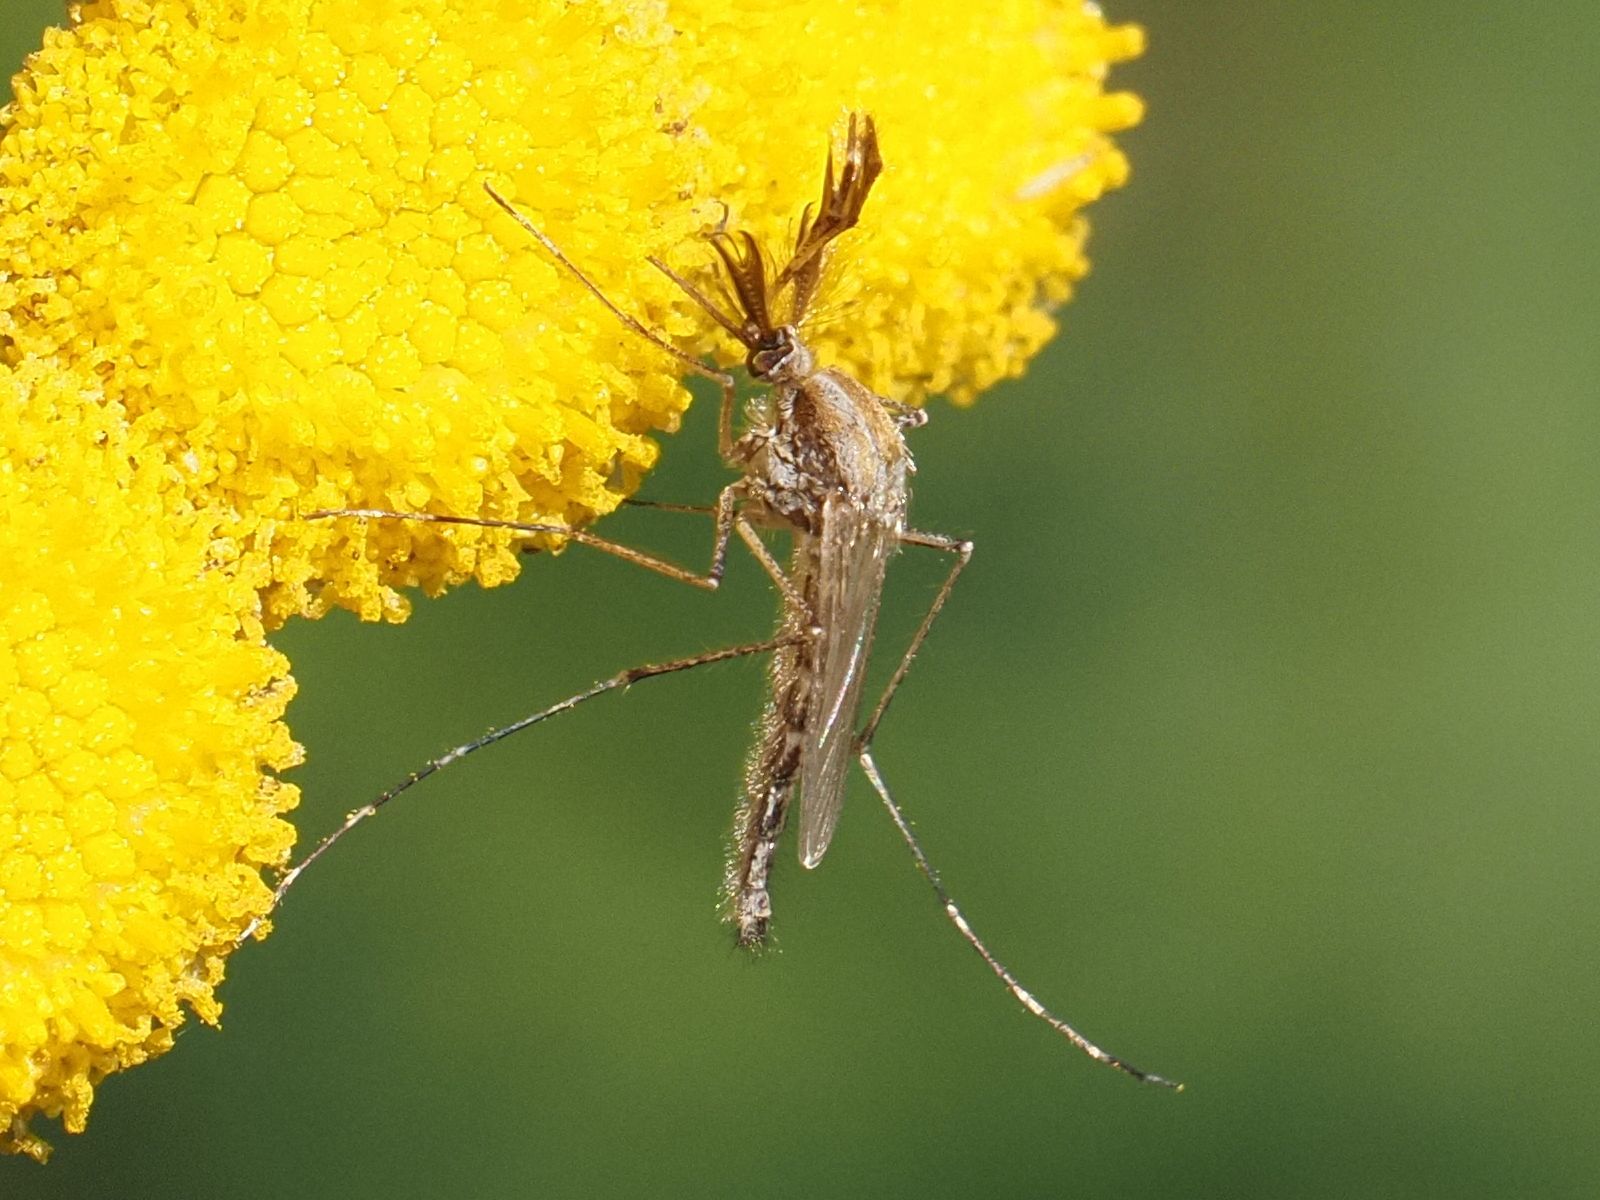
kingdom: Animalia
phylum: Arthropoda
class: Insecta
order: Diptera
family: Culicidae
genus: Aedes
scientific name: Aedes caspius
